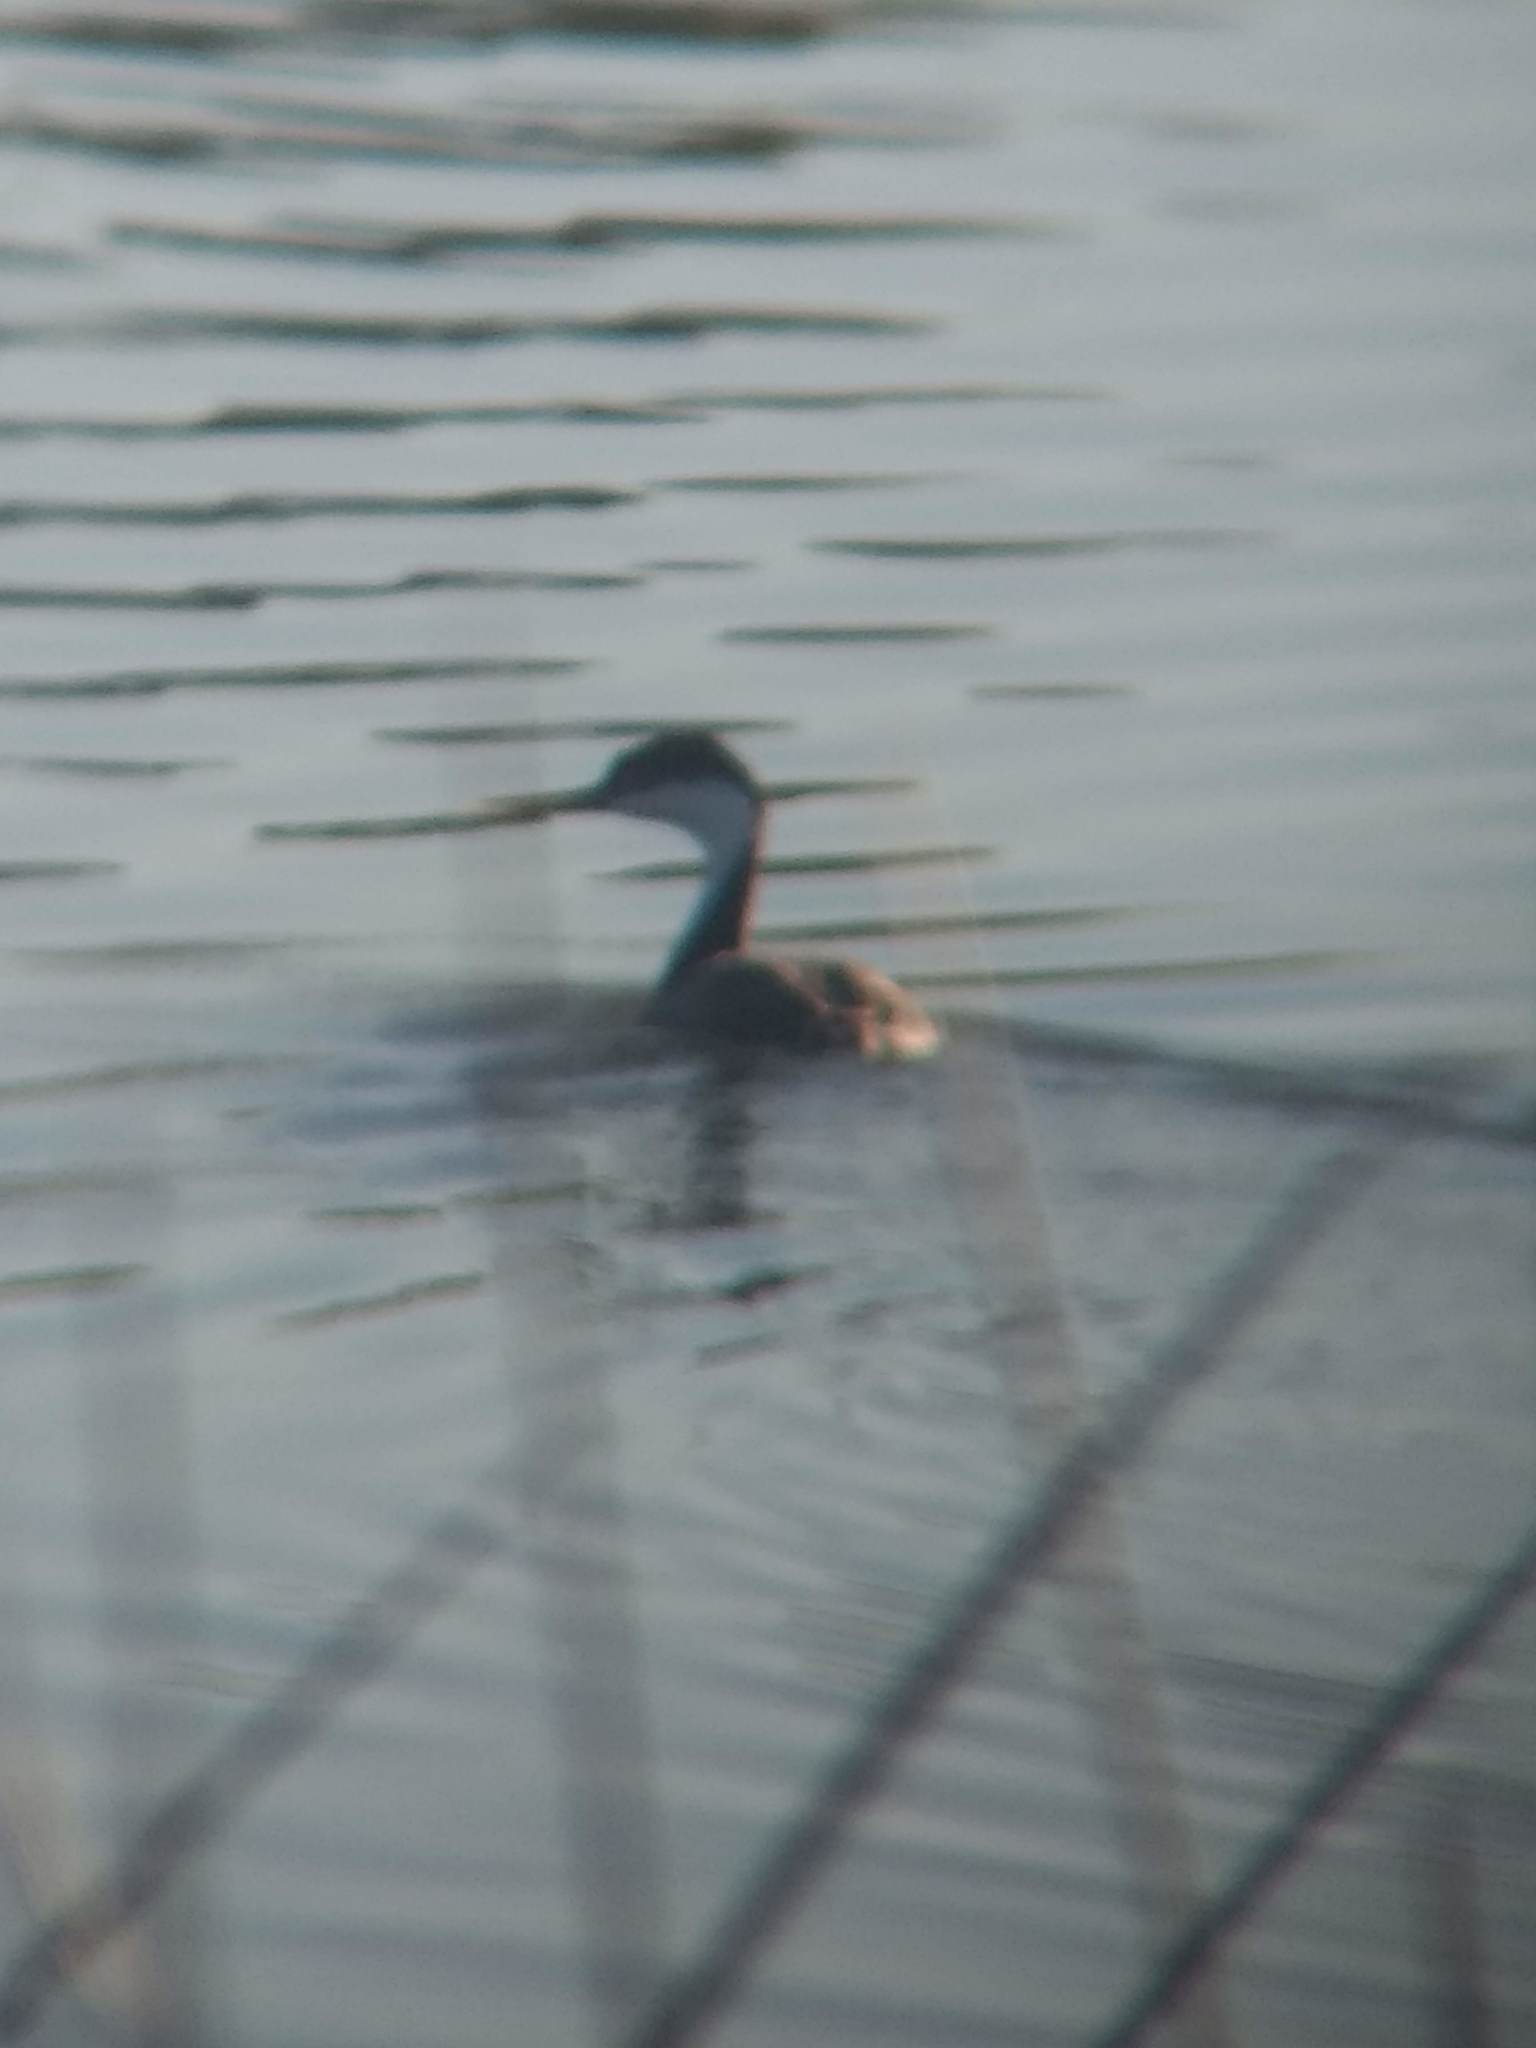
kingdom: Animalia
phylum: Chordata
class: Aves
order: Podicipediformes
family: Podicipedidae
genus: Aechmophorus
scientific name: Aechmophorus occidentalis
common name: Western grebe
